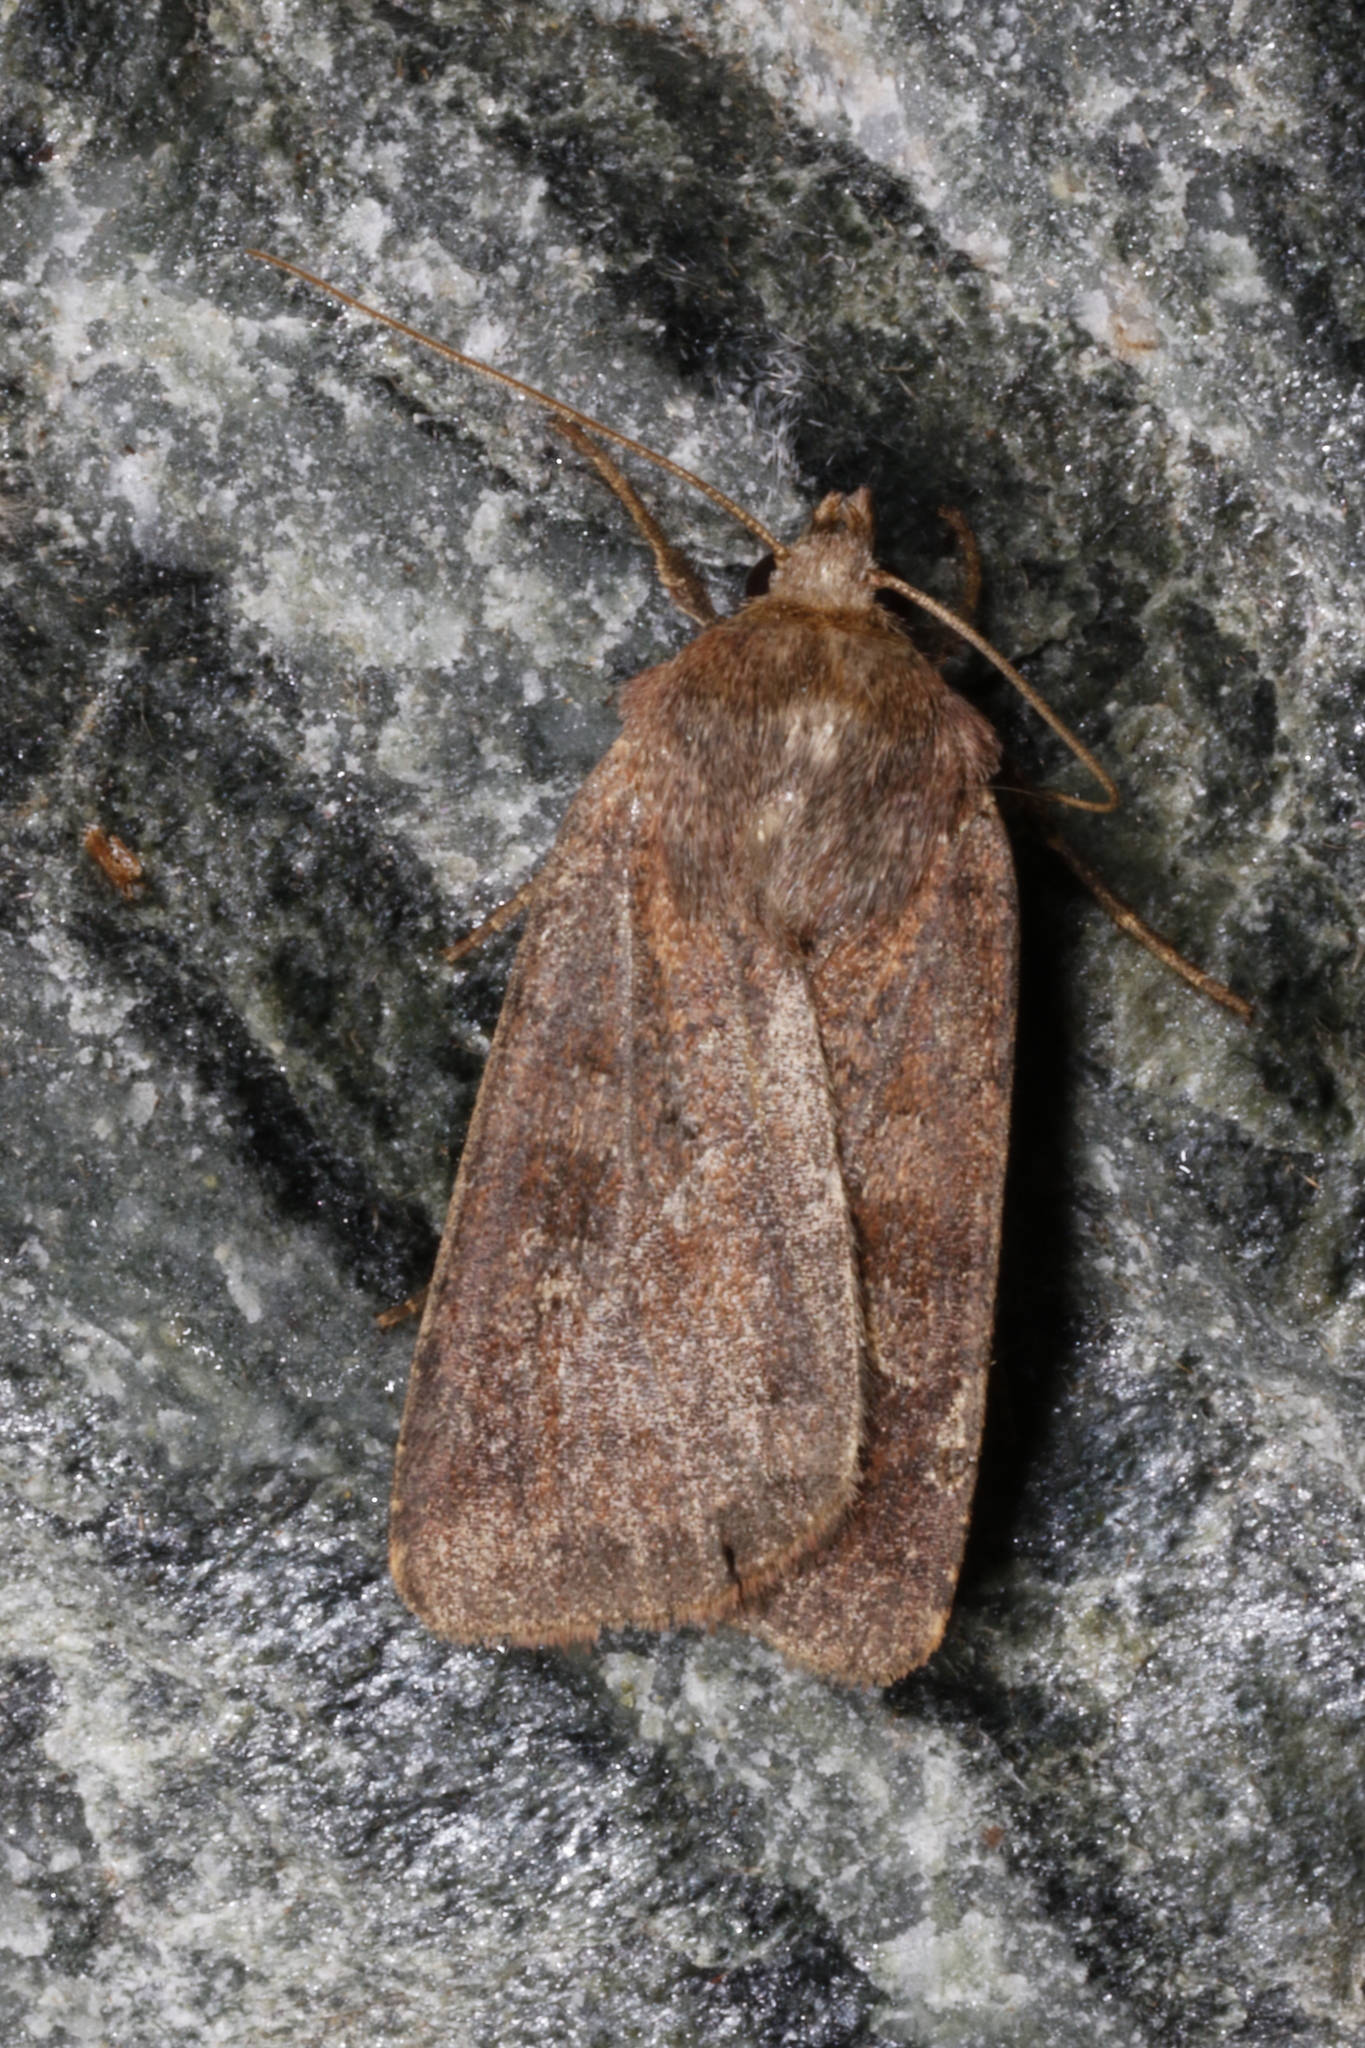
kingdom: Animalia
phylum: Arthropoda
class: Insecta
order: Lepidoptera
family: Noctuidae
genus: Diarsia
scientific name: Diarsia rubi
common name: Small square-spot
